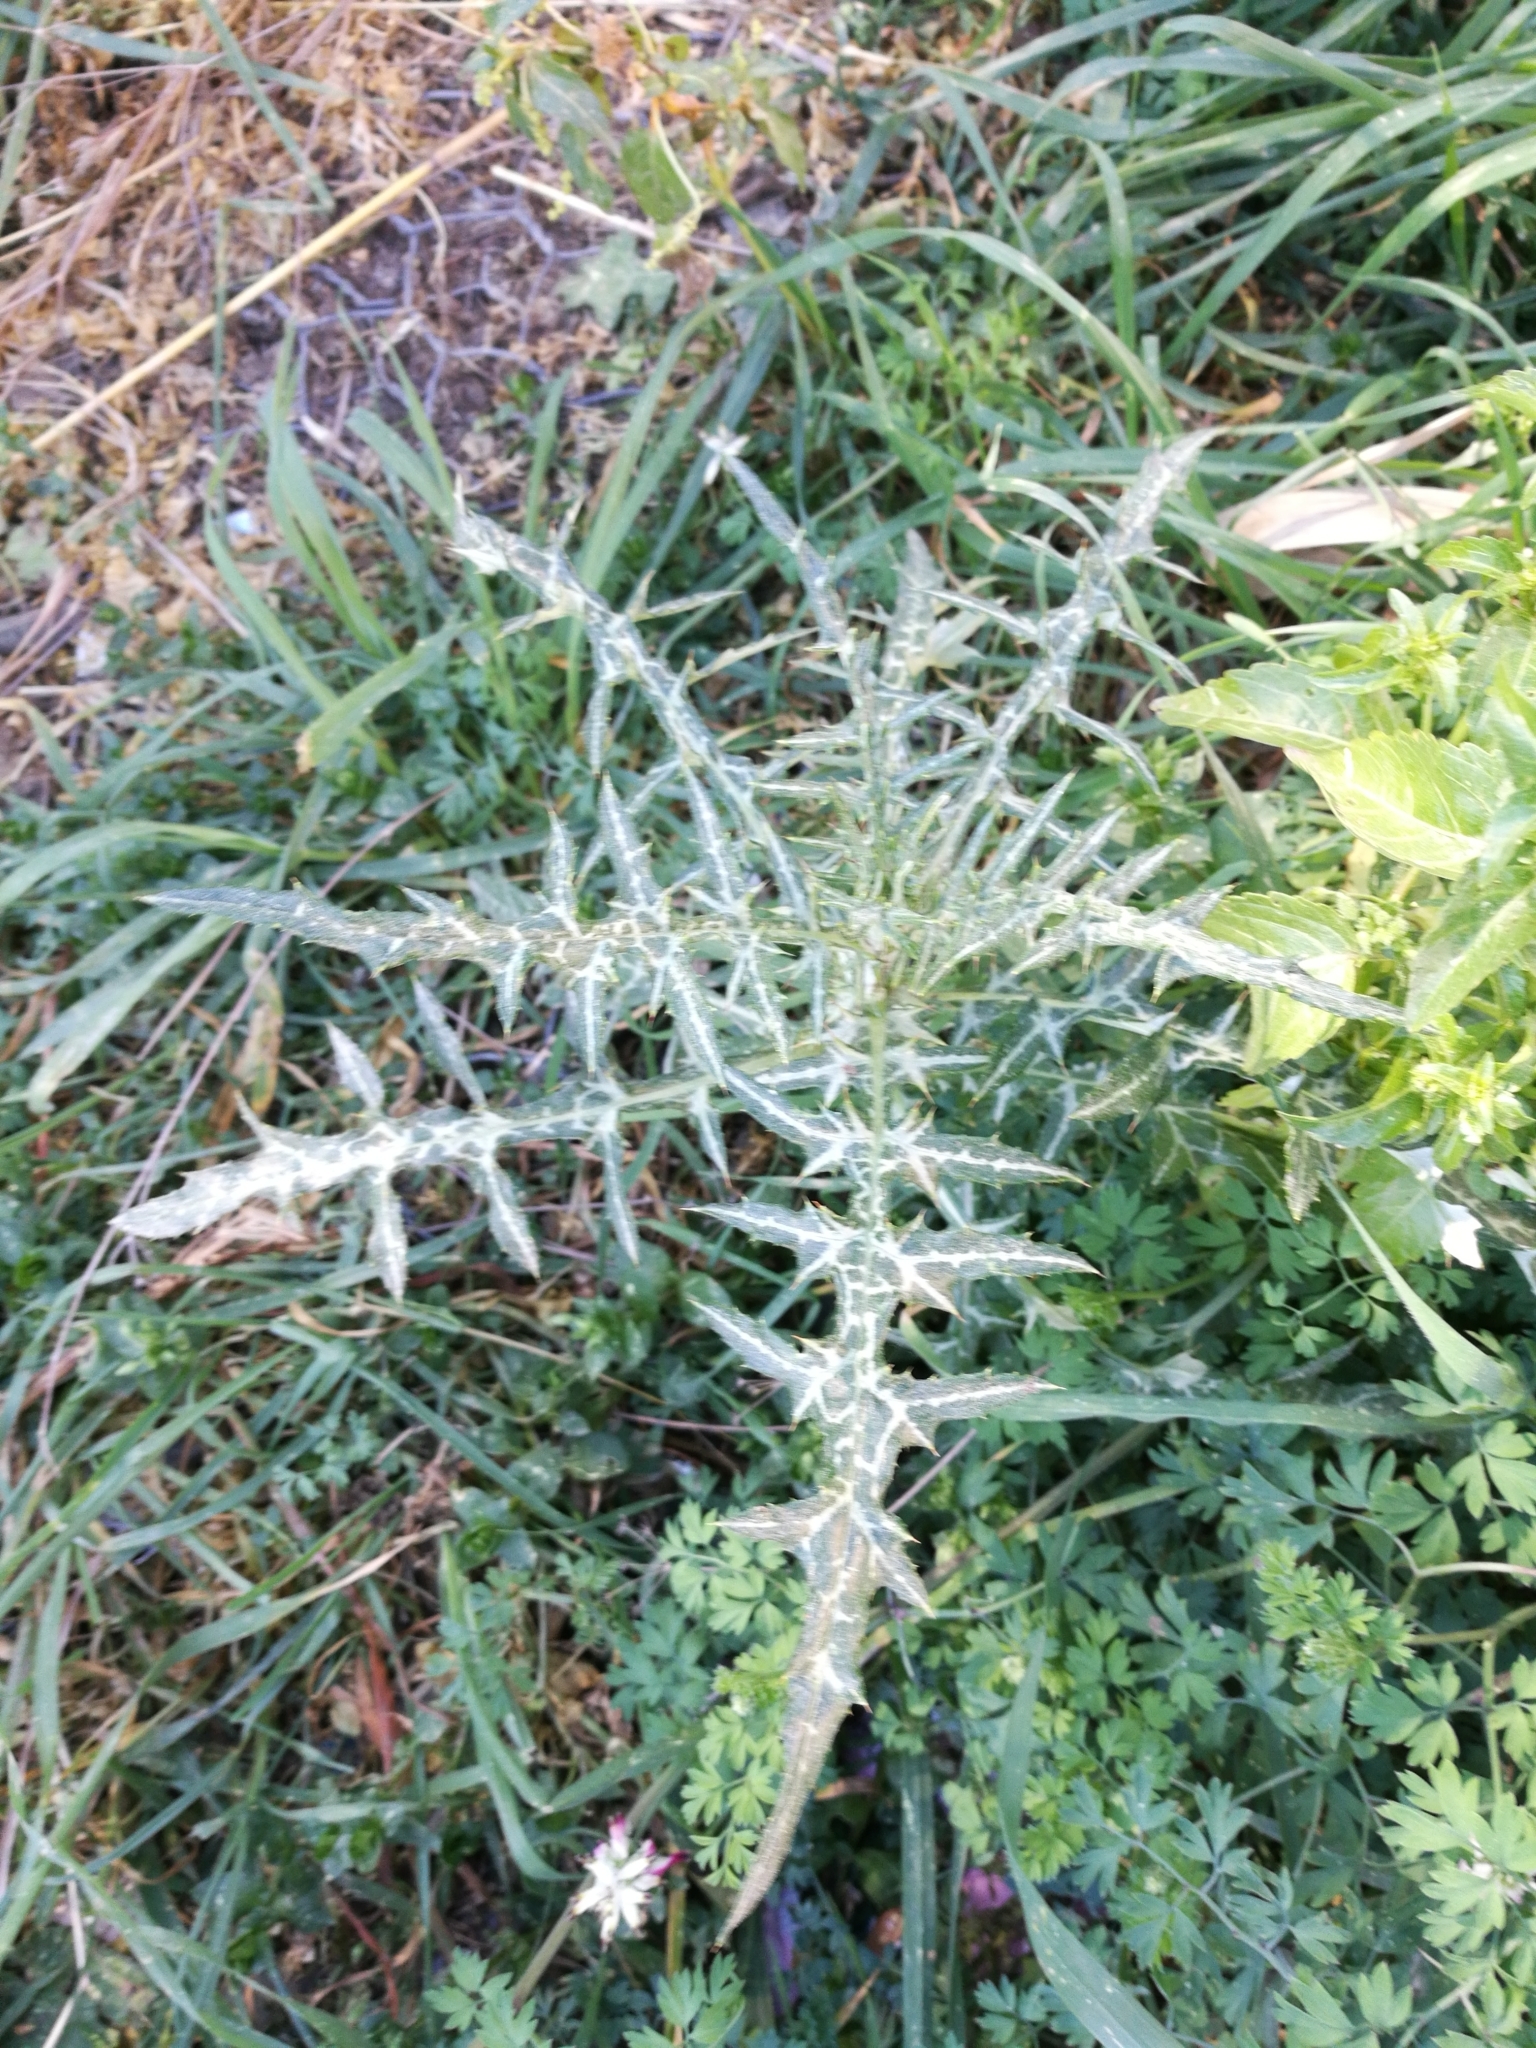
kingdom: Plantae
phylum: Tracheophyta
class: Magnoliopsida
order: Asterales
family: Asteraceae
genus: Galactites
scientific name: Galactites tomentosa
